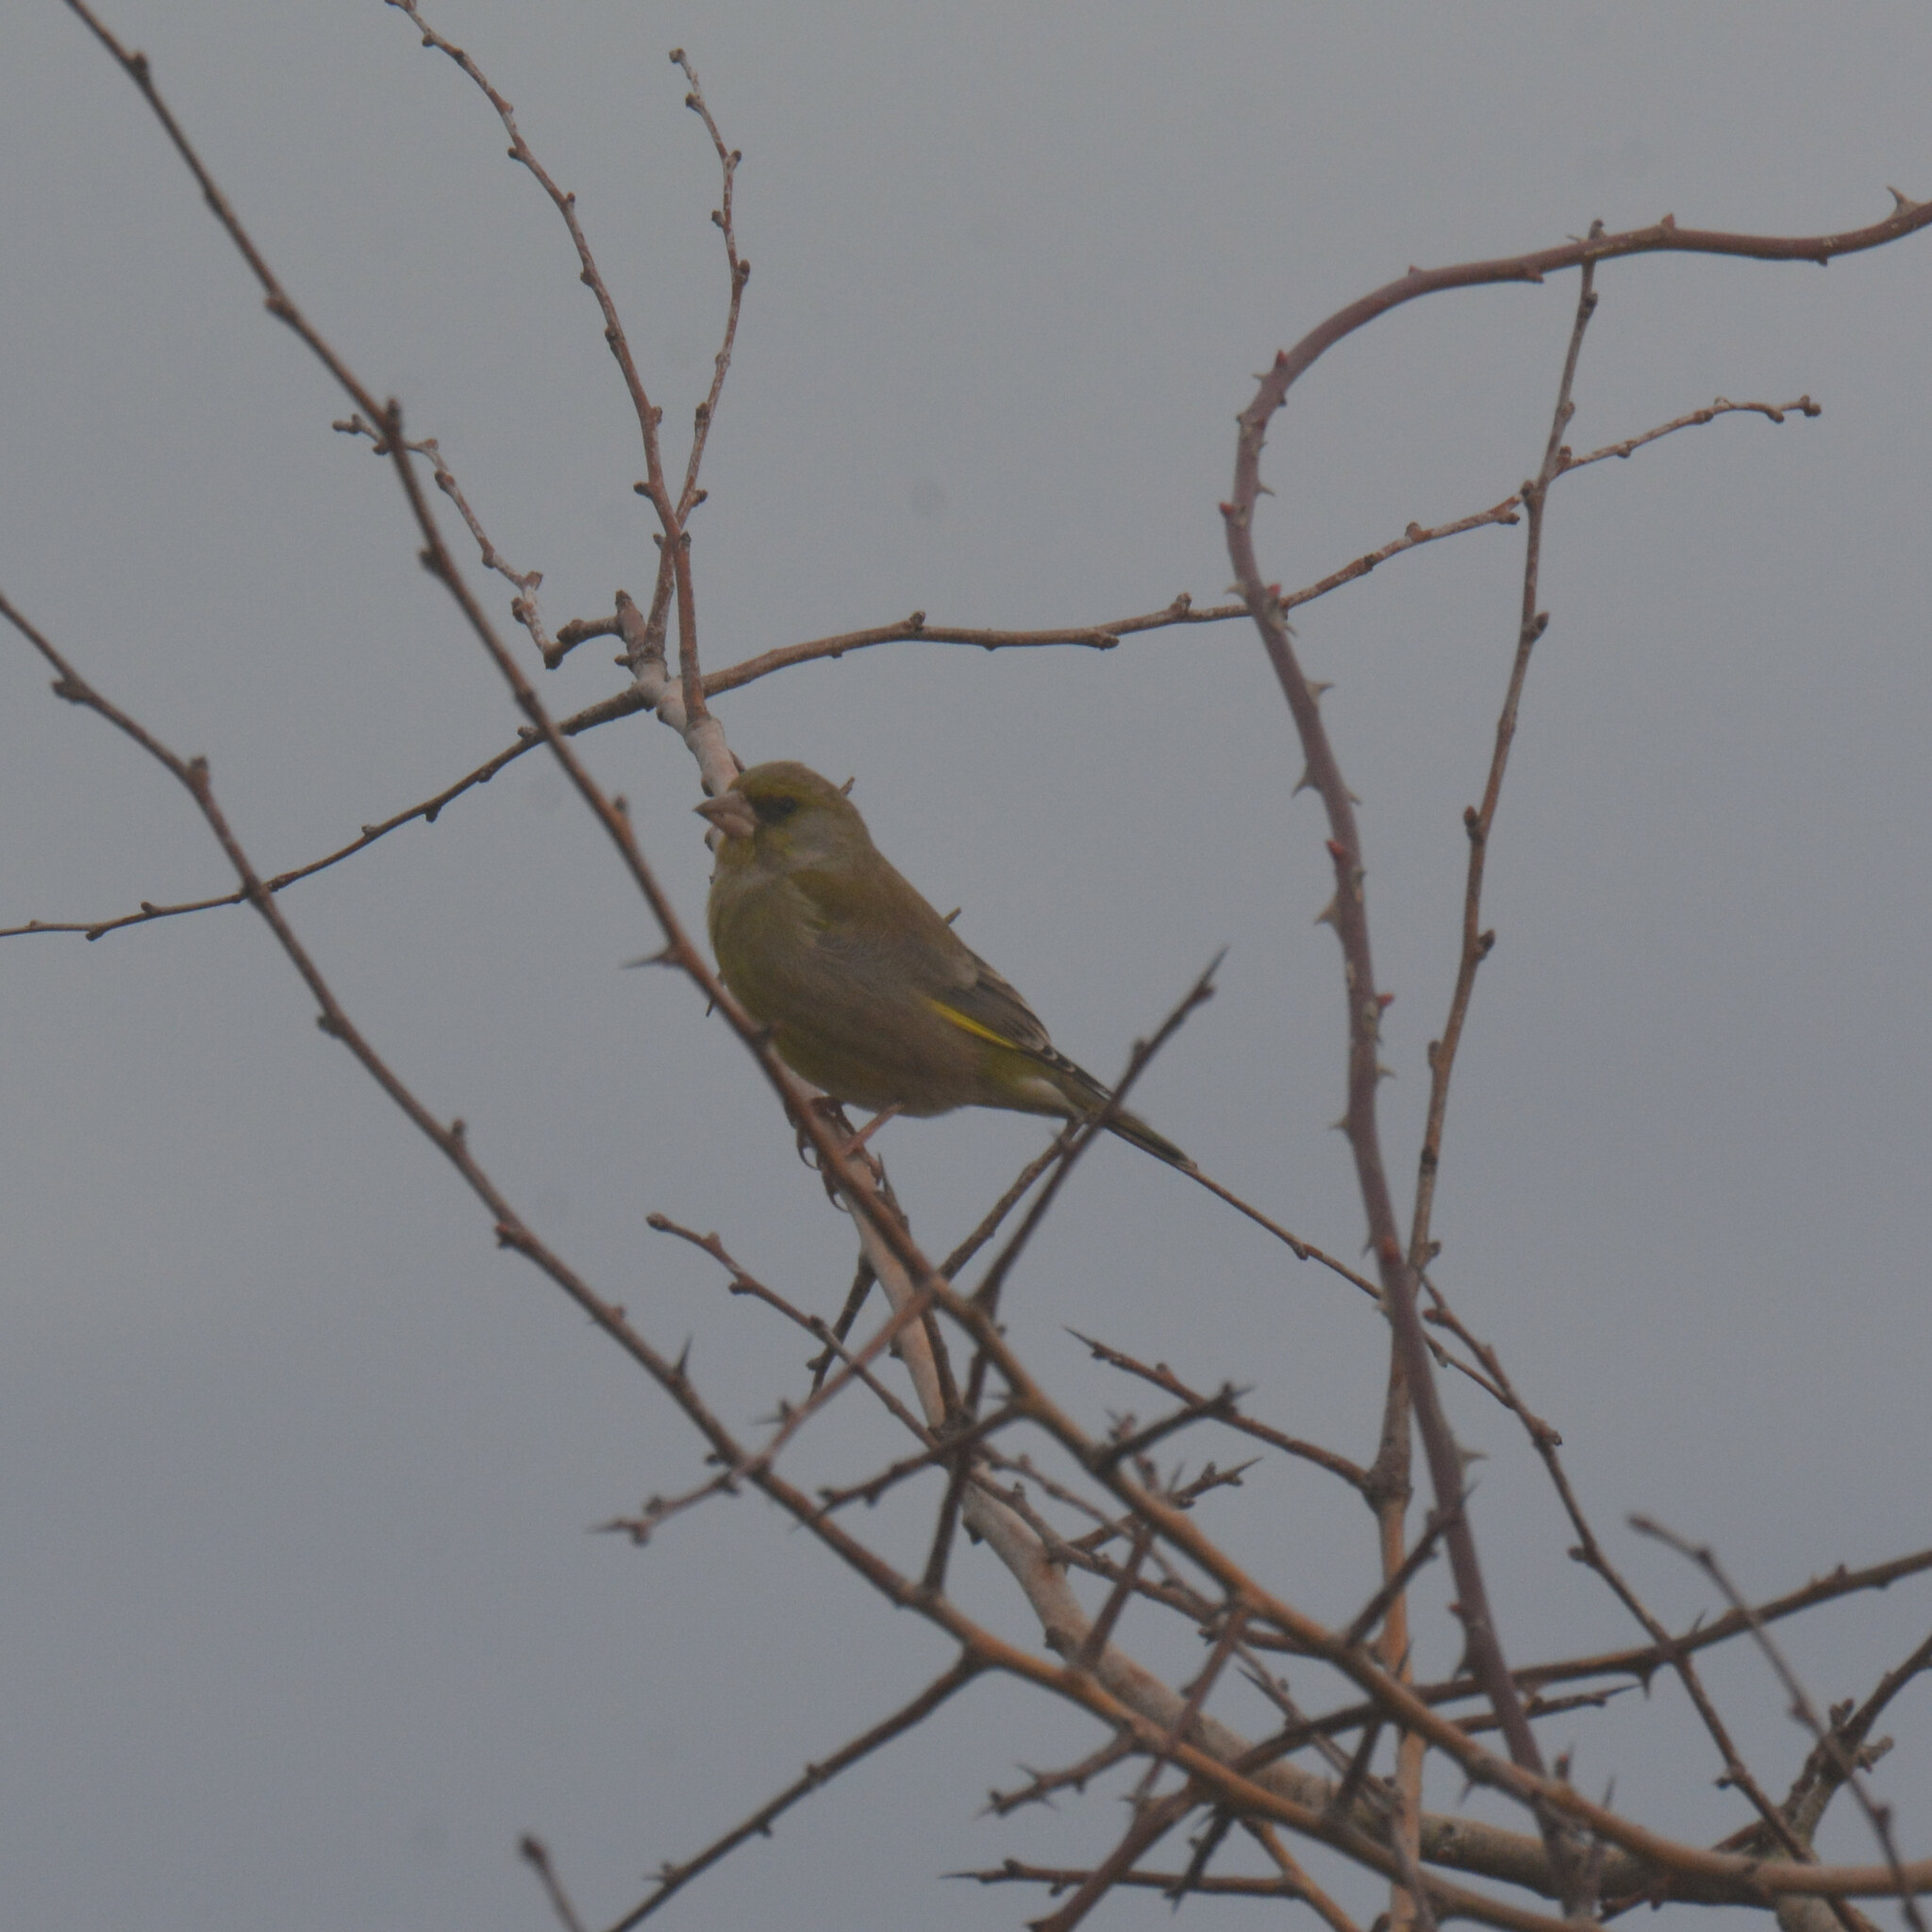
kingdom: Plantae
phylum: Tracheophyta
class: Liliopsida
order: Poales
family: Poaceae
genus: Chloris
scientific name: Chloris chloris
